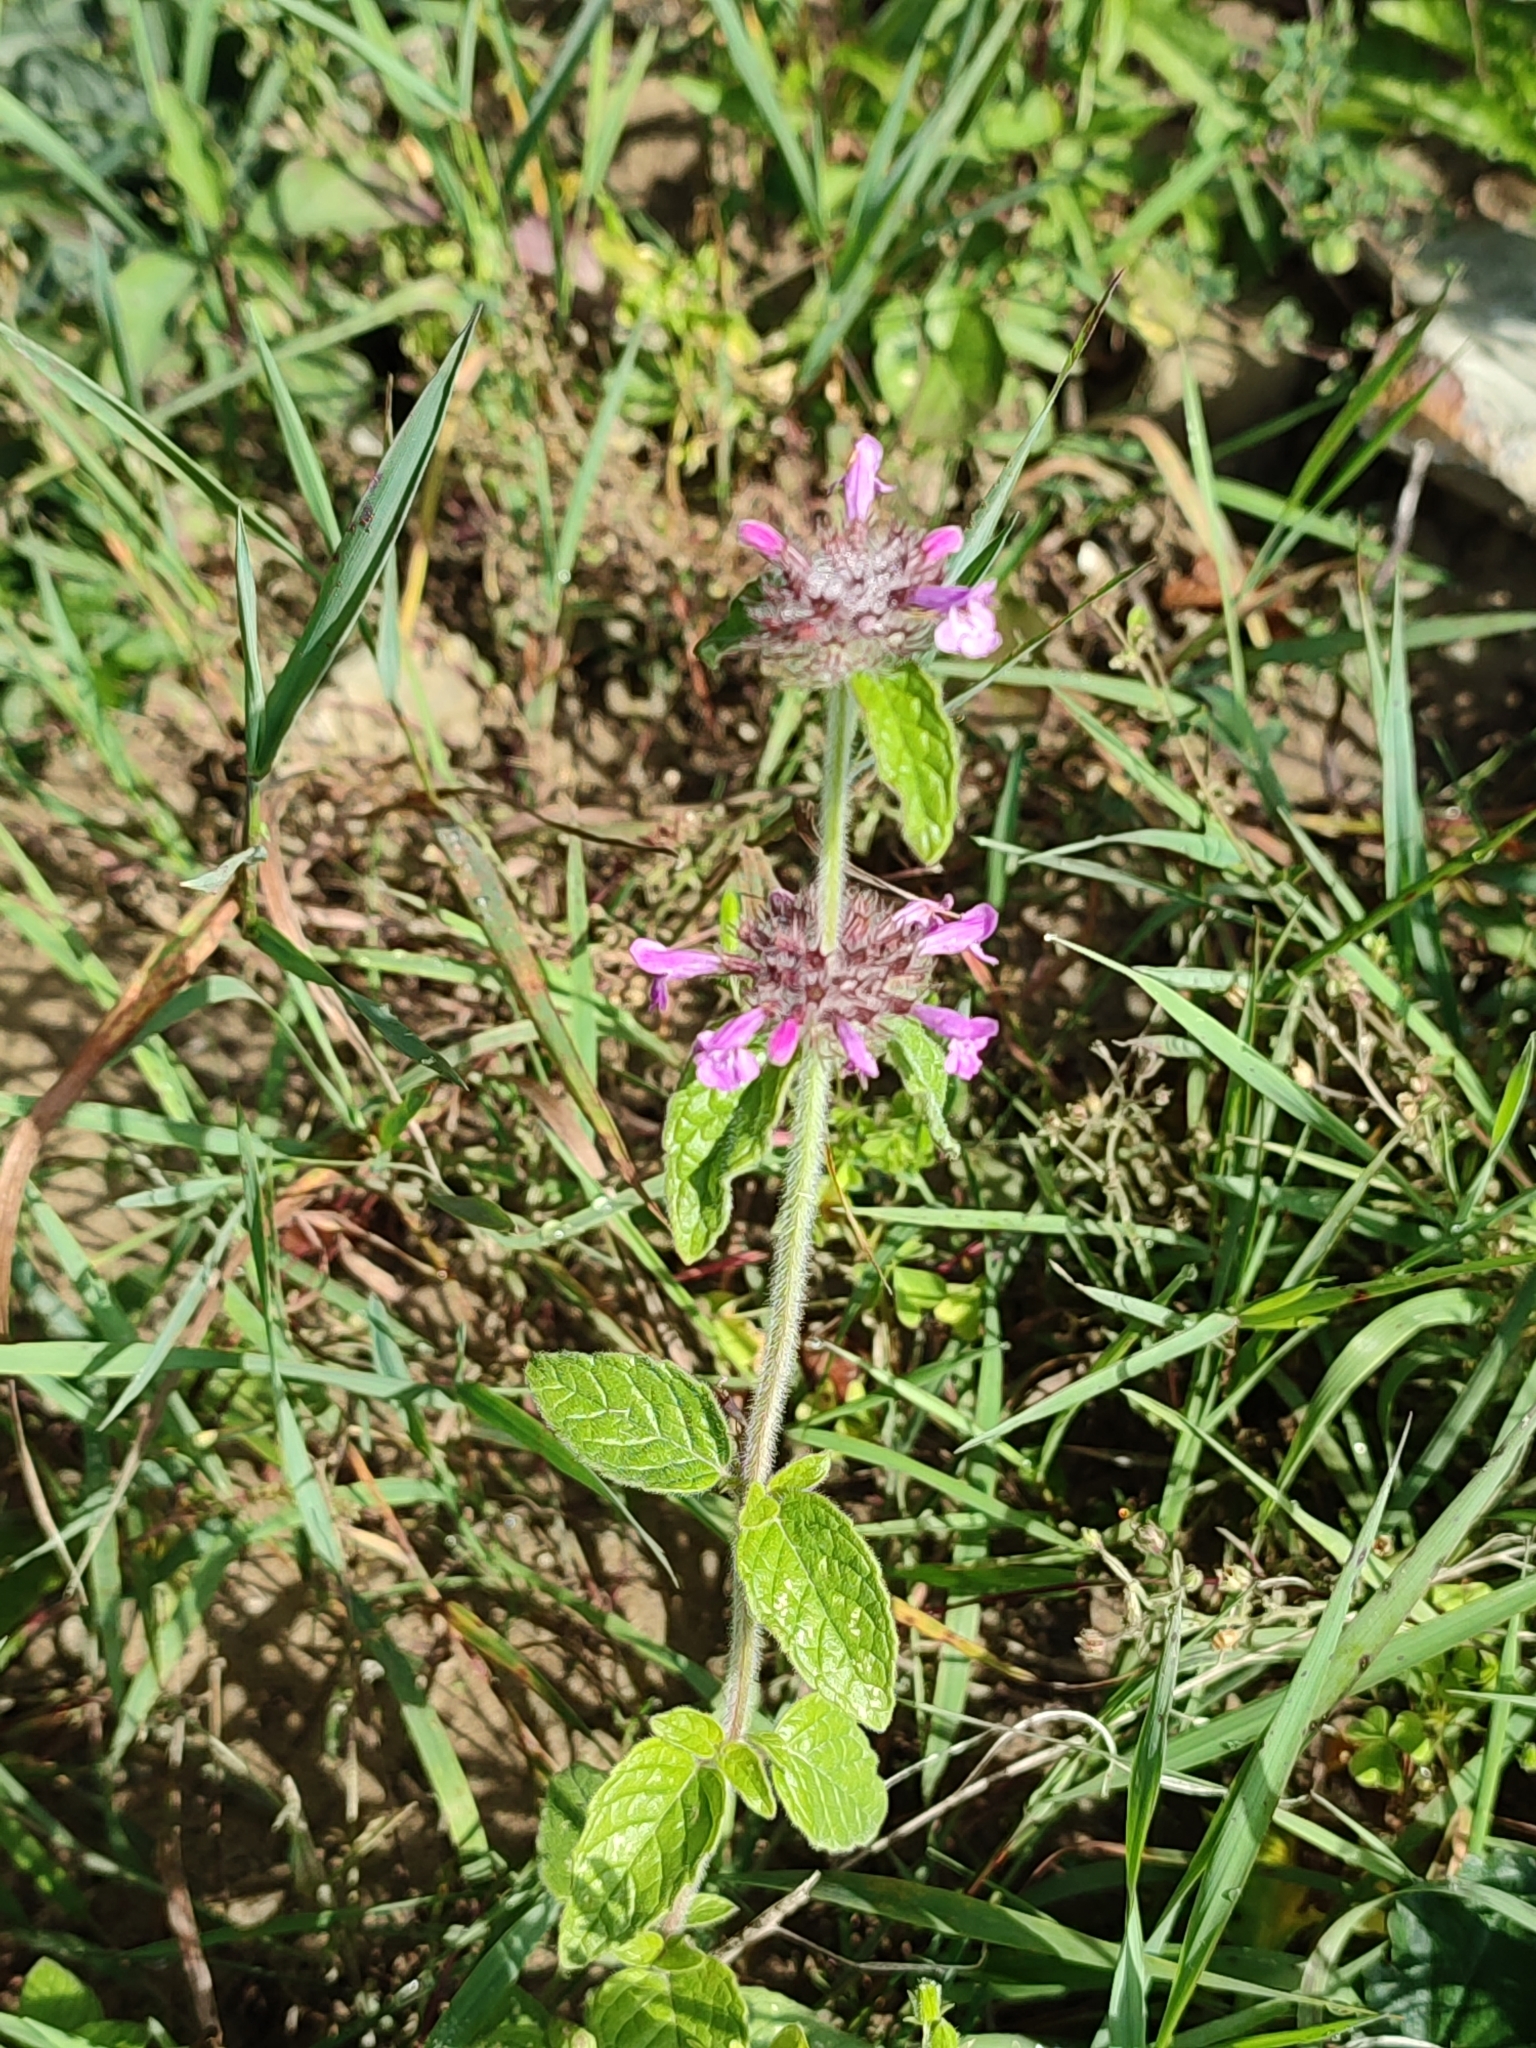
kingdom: Plantae
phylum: Tracheophyta
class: Magnoliopsida
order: Lamiales
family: Lamiaceae
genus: Clinopodium
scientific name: Clinopodium vulgare
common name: Wild basil
